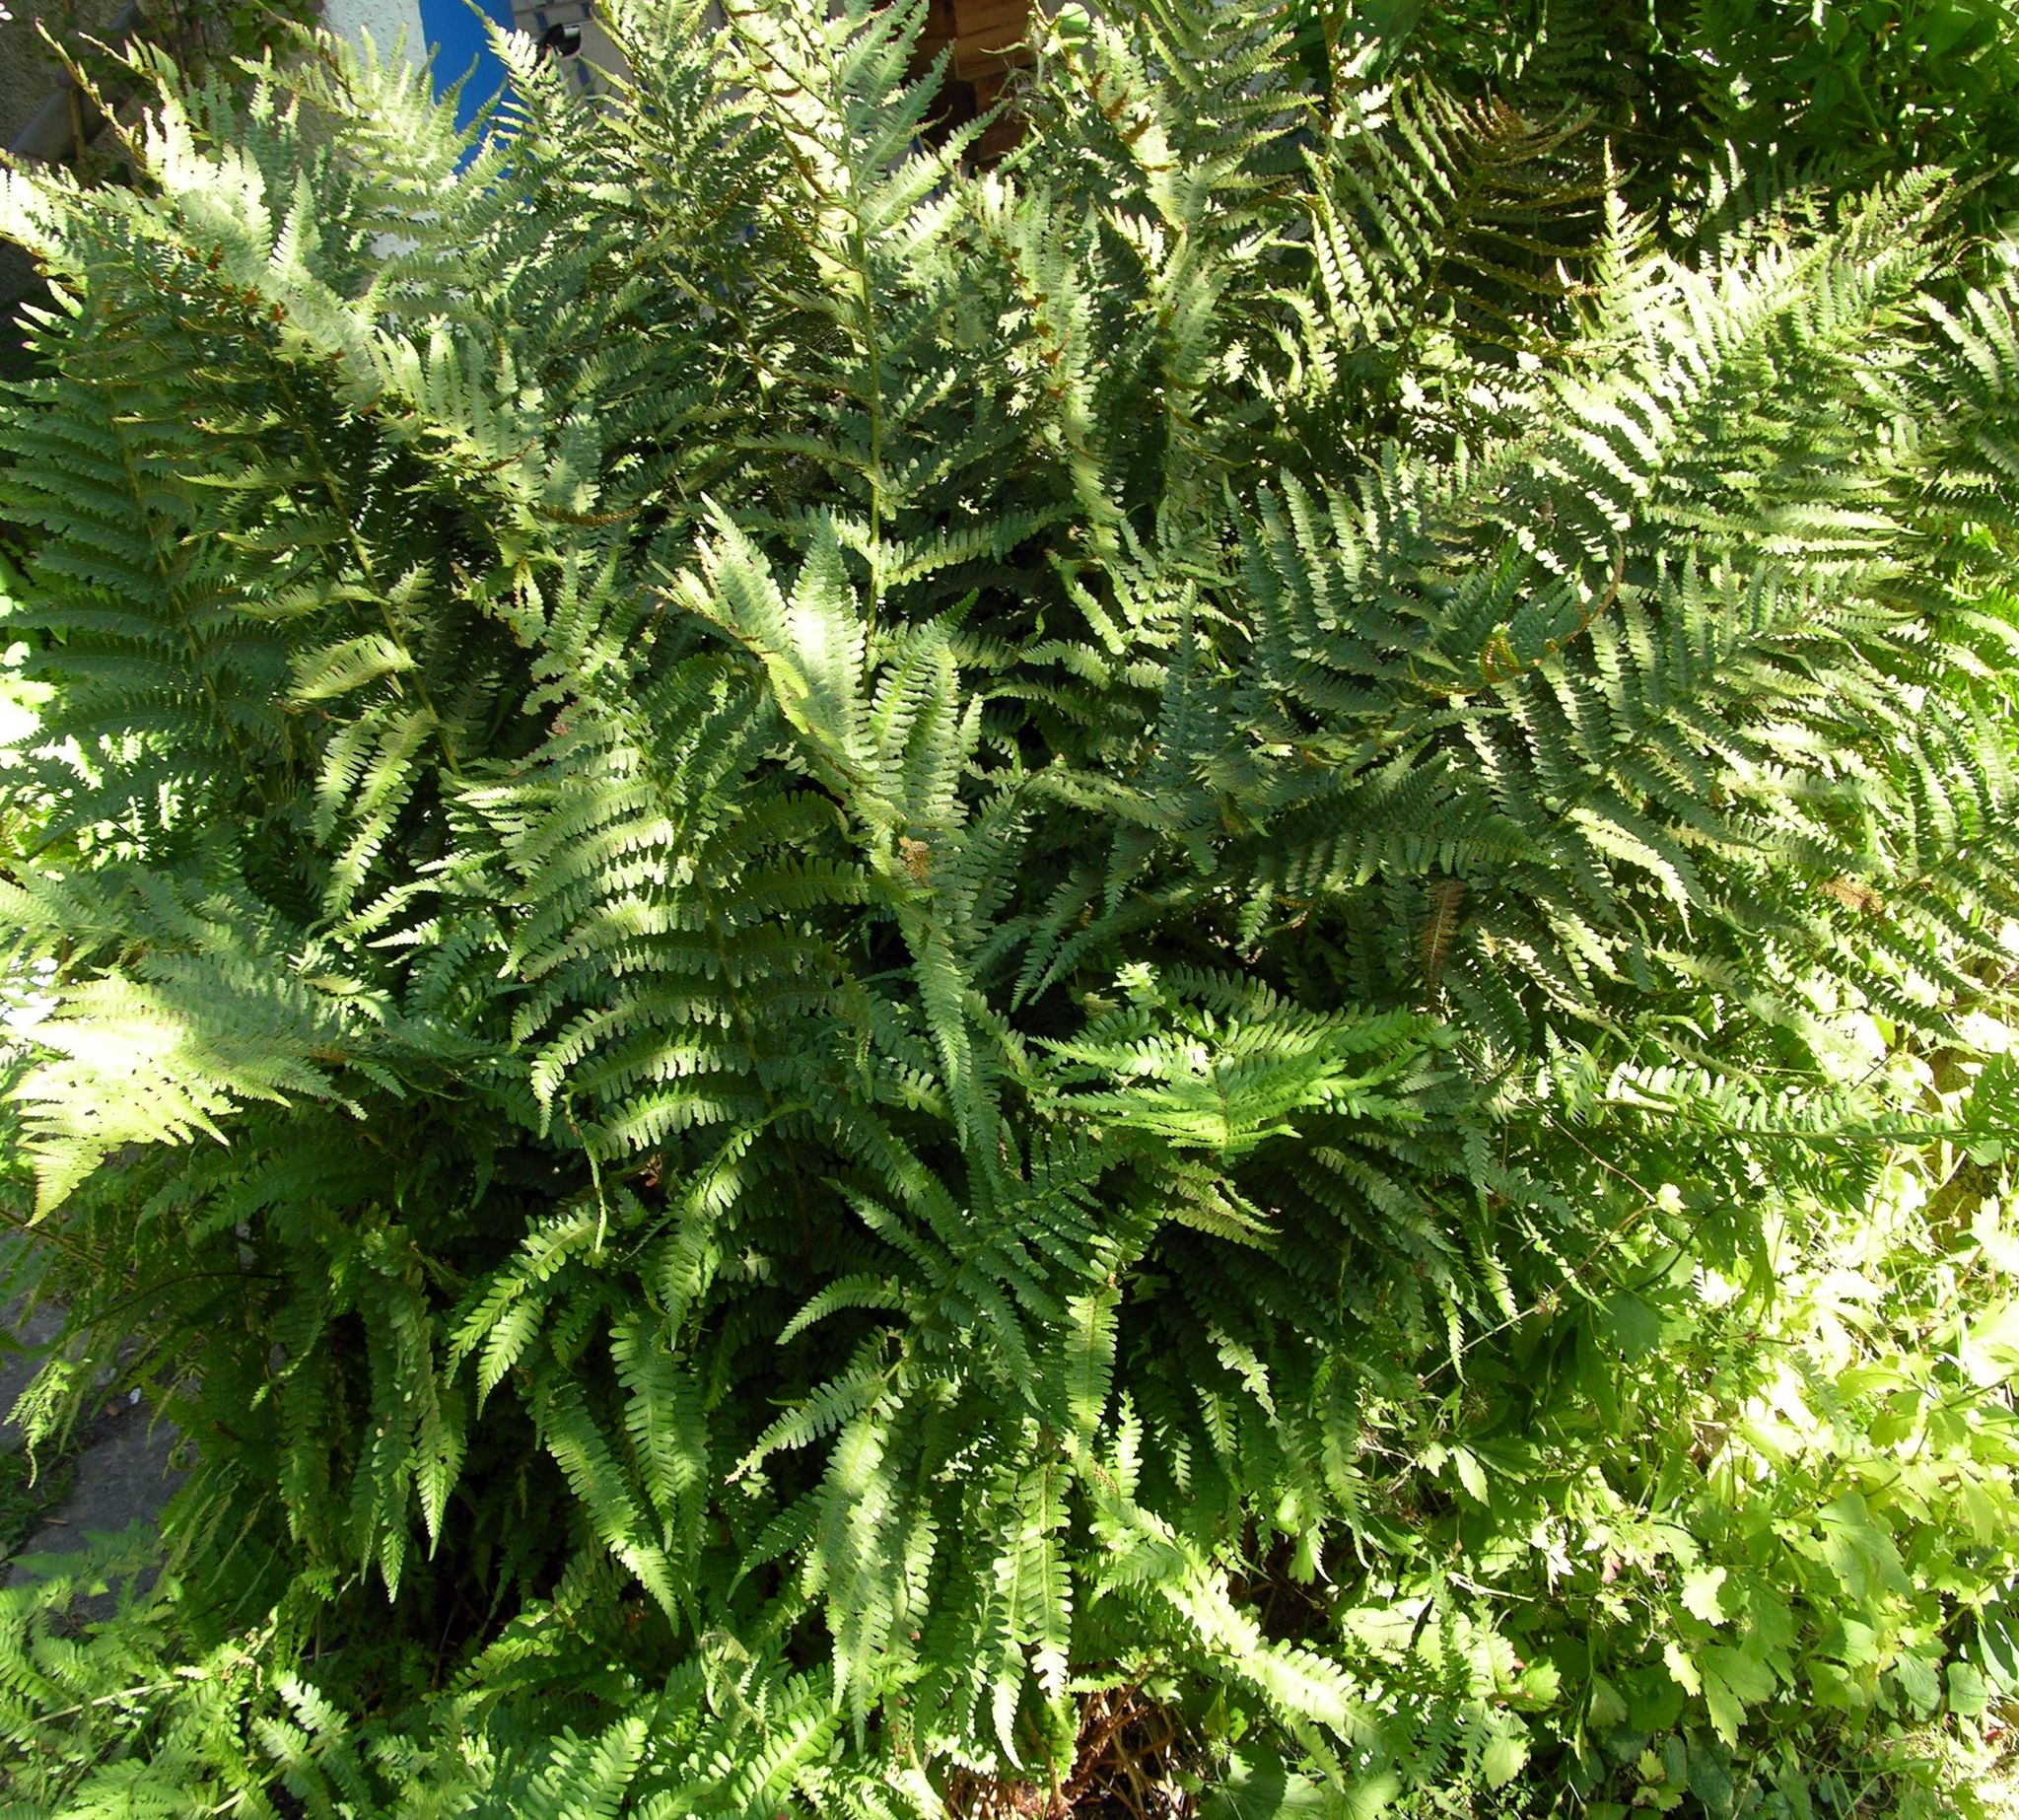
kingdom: Plantae
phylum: Tracheophyta
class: Polypodiopsida
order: Polypodiales
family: Dryopteridaceae
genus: Dryopteris
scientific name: Dryopteris filix-mas
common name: Male fern
